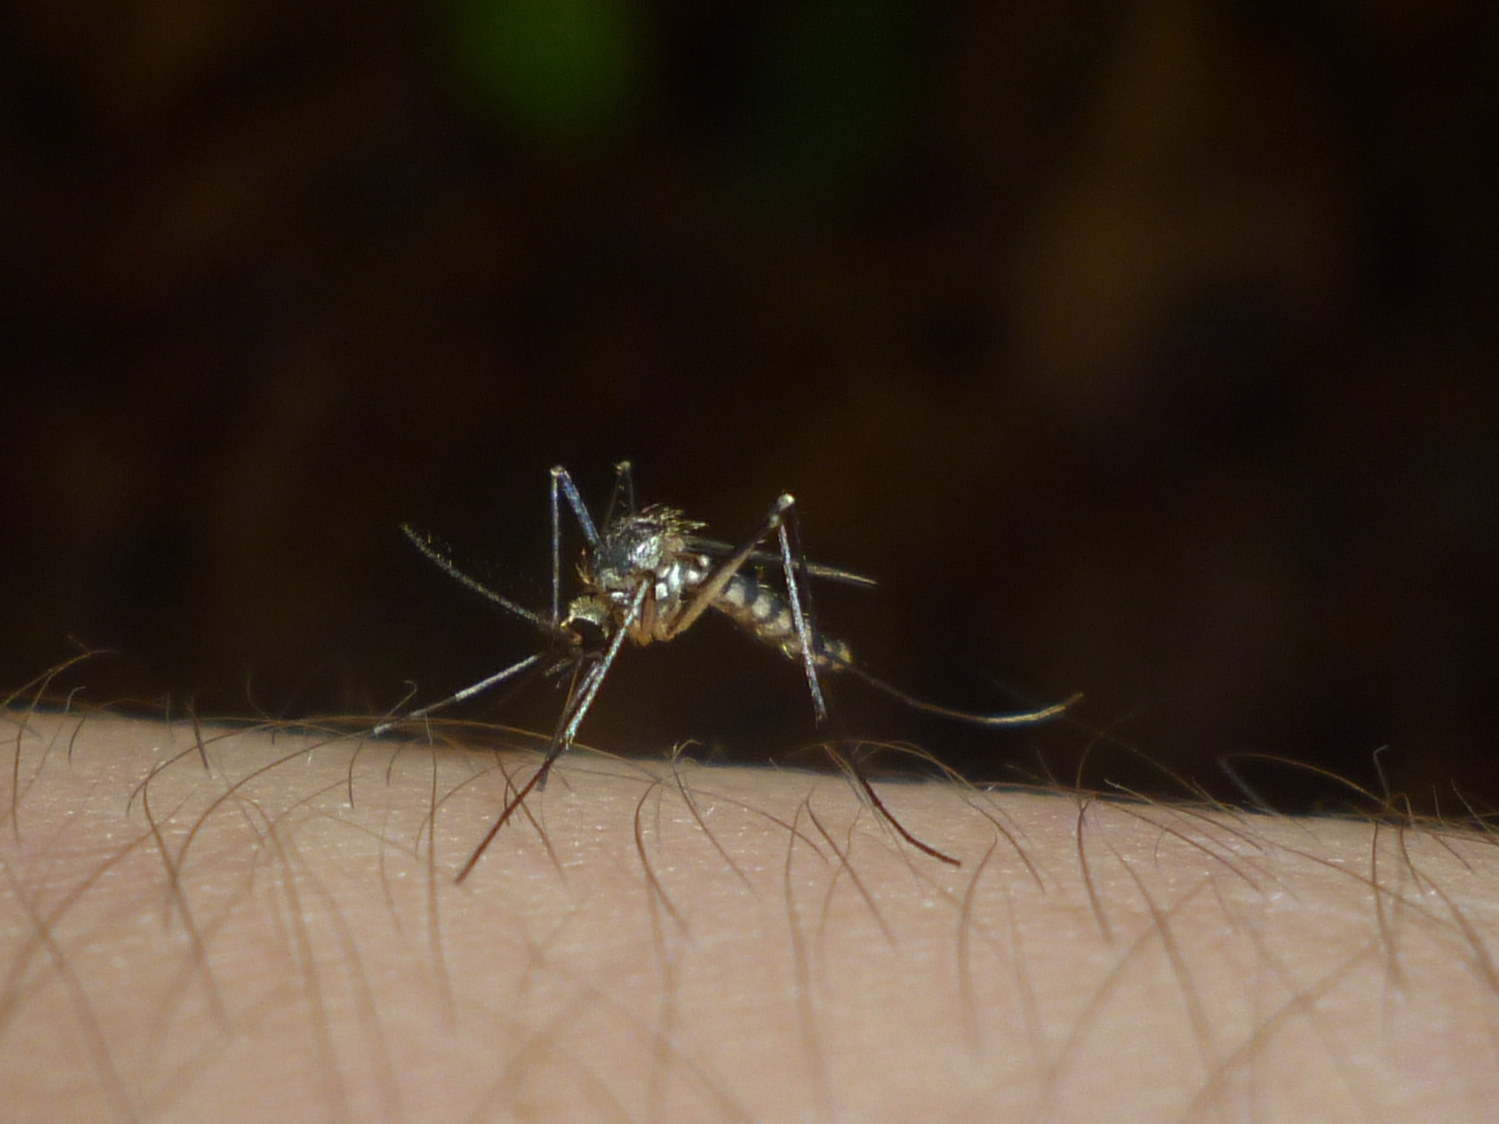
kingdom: Animalia
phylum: Arthropoda
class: Insecta
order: Diptera
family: Culicidae
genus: Aedes
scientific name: Aedes triseriatus
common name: Eastern treehole mosquito
